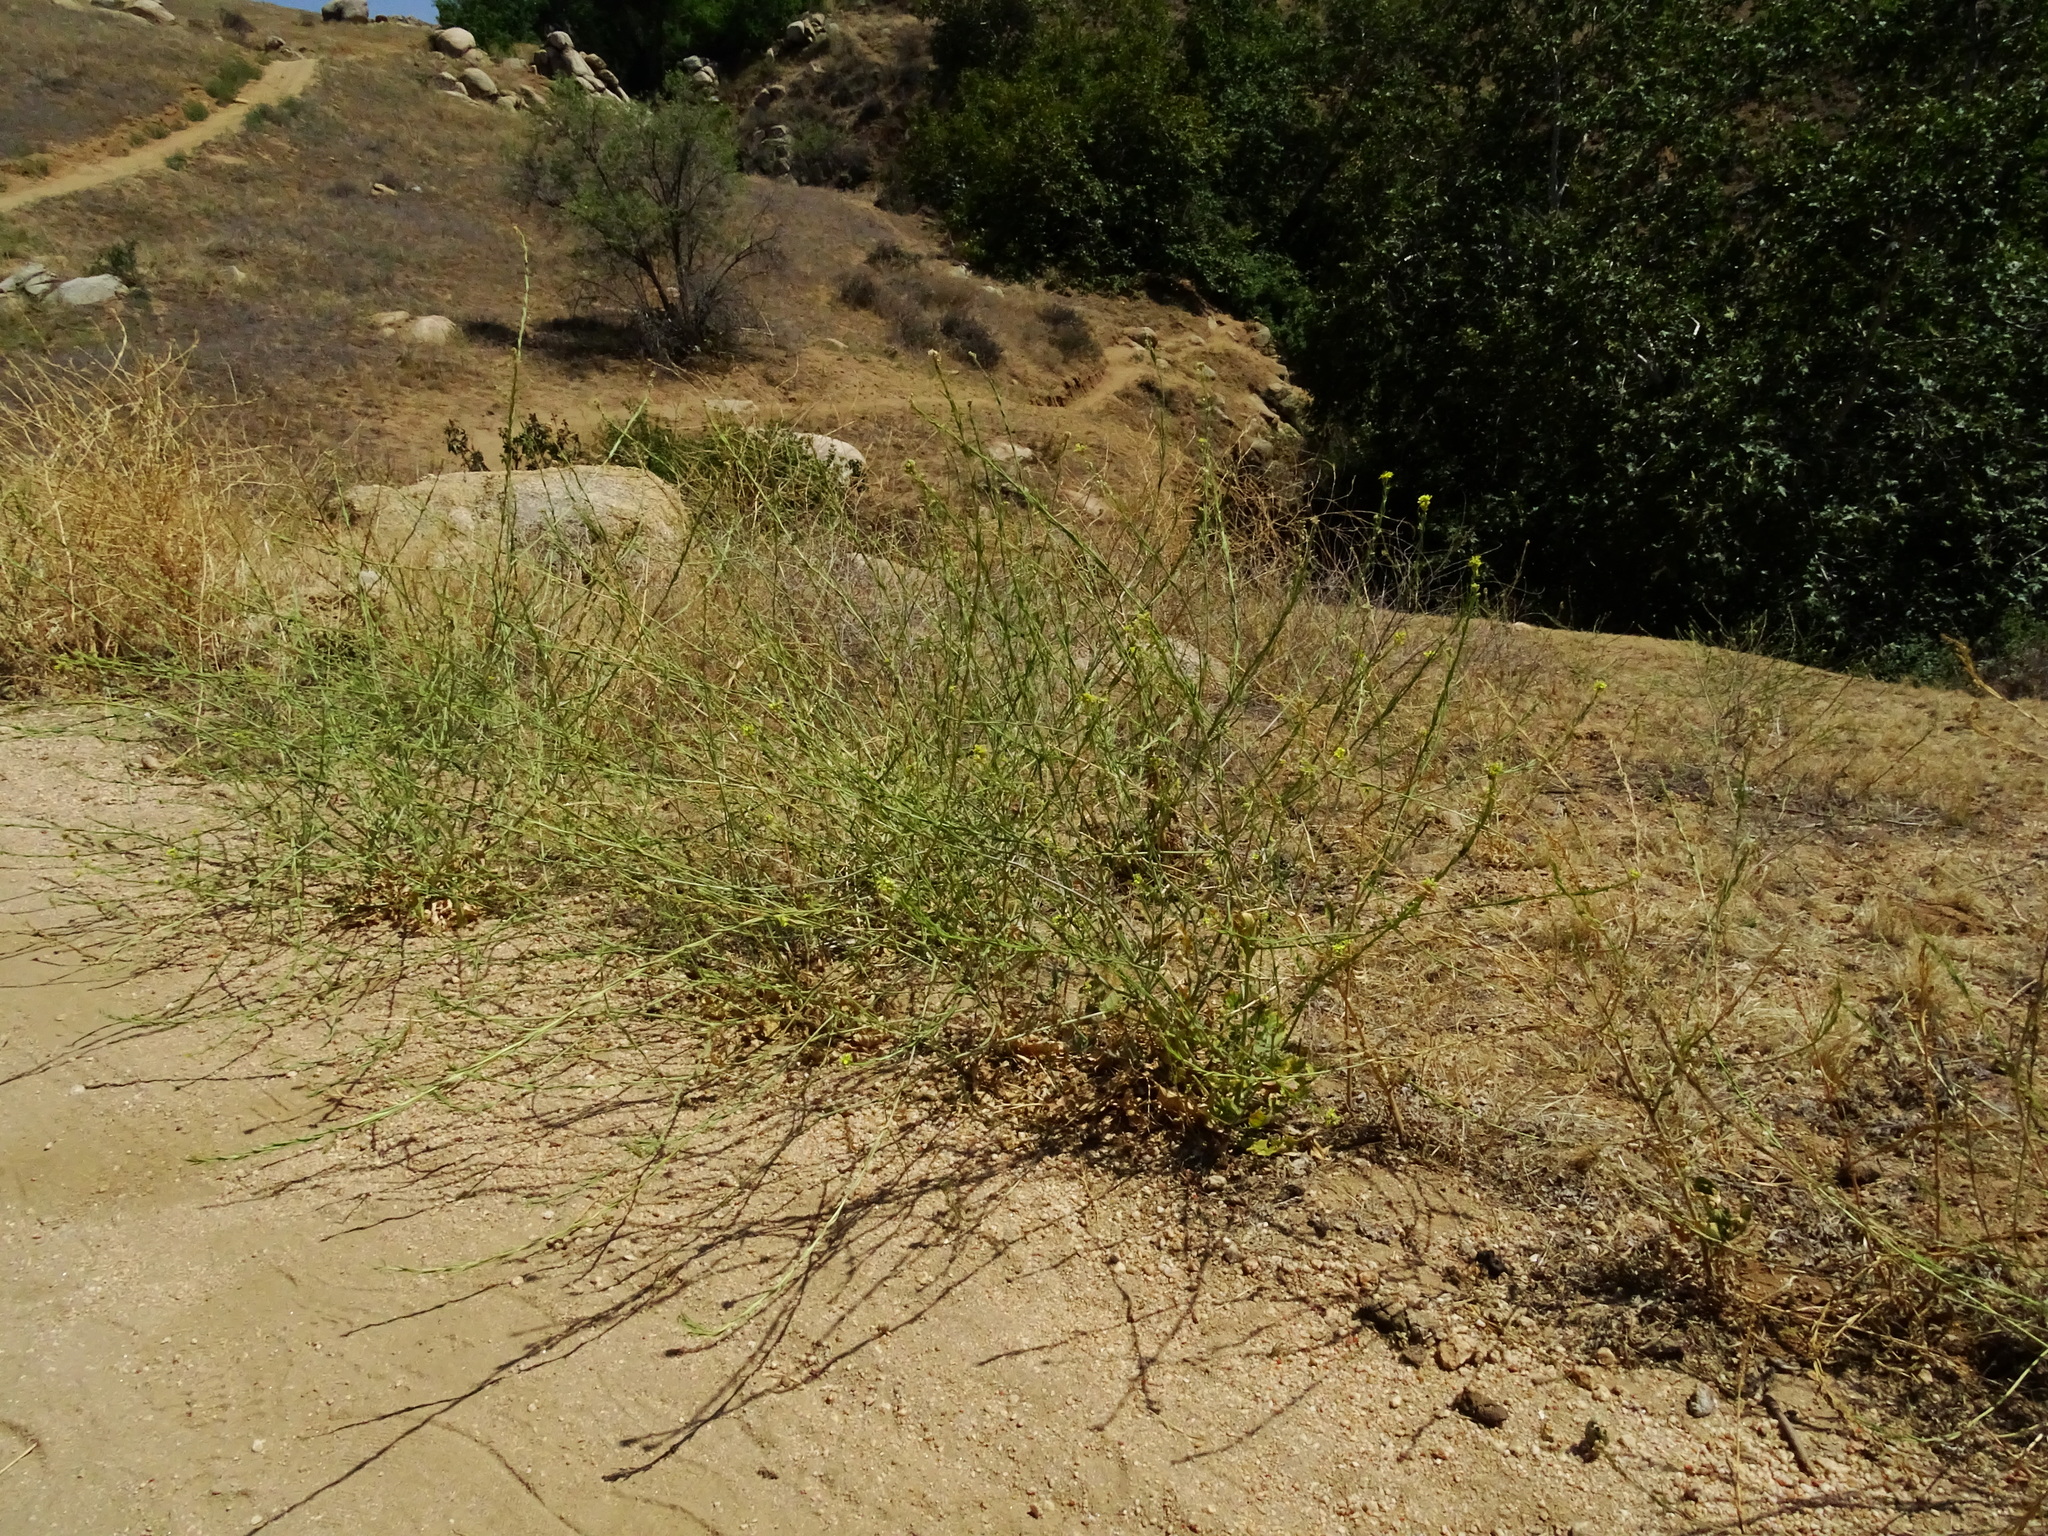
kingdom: Plantae
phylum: Tracheophyta
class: Magnoliopsida
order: Brassicales
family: Brassicaceae
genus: Hirschfeldia
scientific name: Hirschfeldia incana
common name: Hoary mustard
